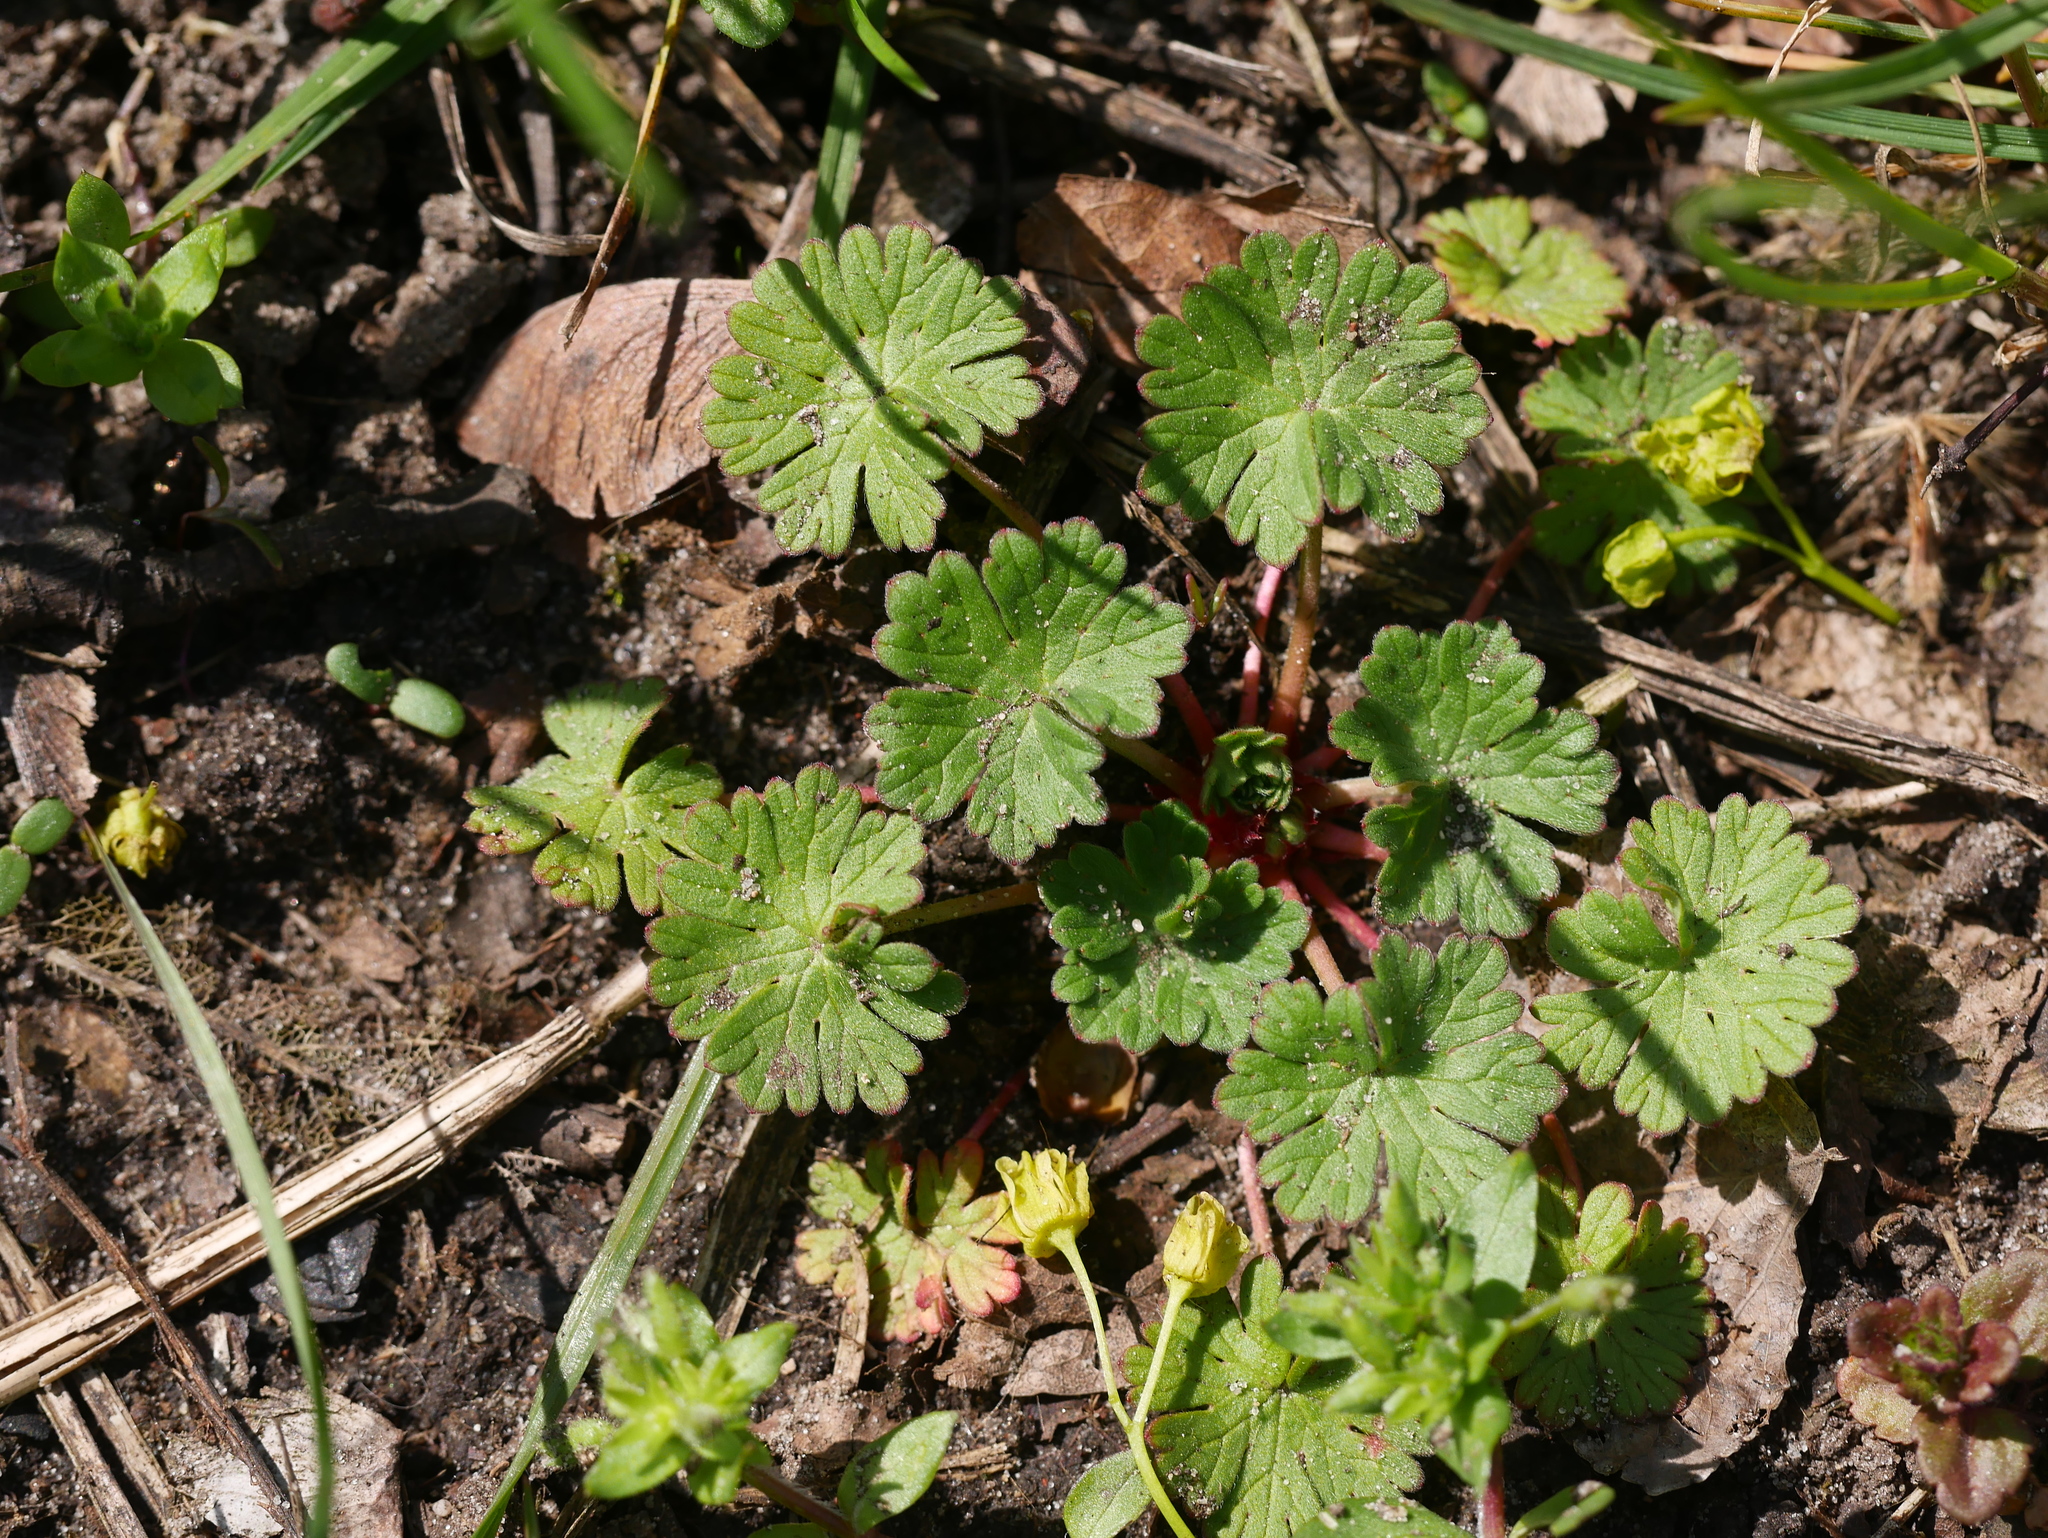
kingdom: Plantae
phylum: Tracheophyta
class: Magnoliopsida
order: Geraniales
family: Geraniaceae
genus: Geranium
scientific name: Geranium molle
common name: Dove's-foot crane's-bill
